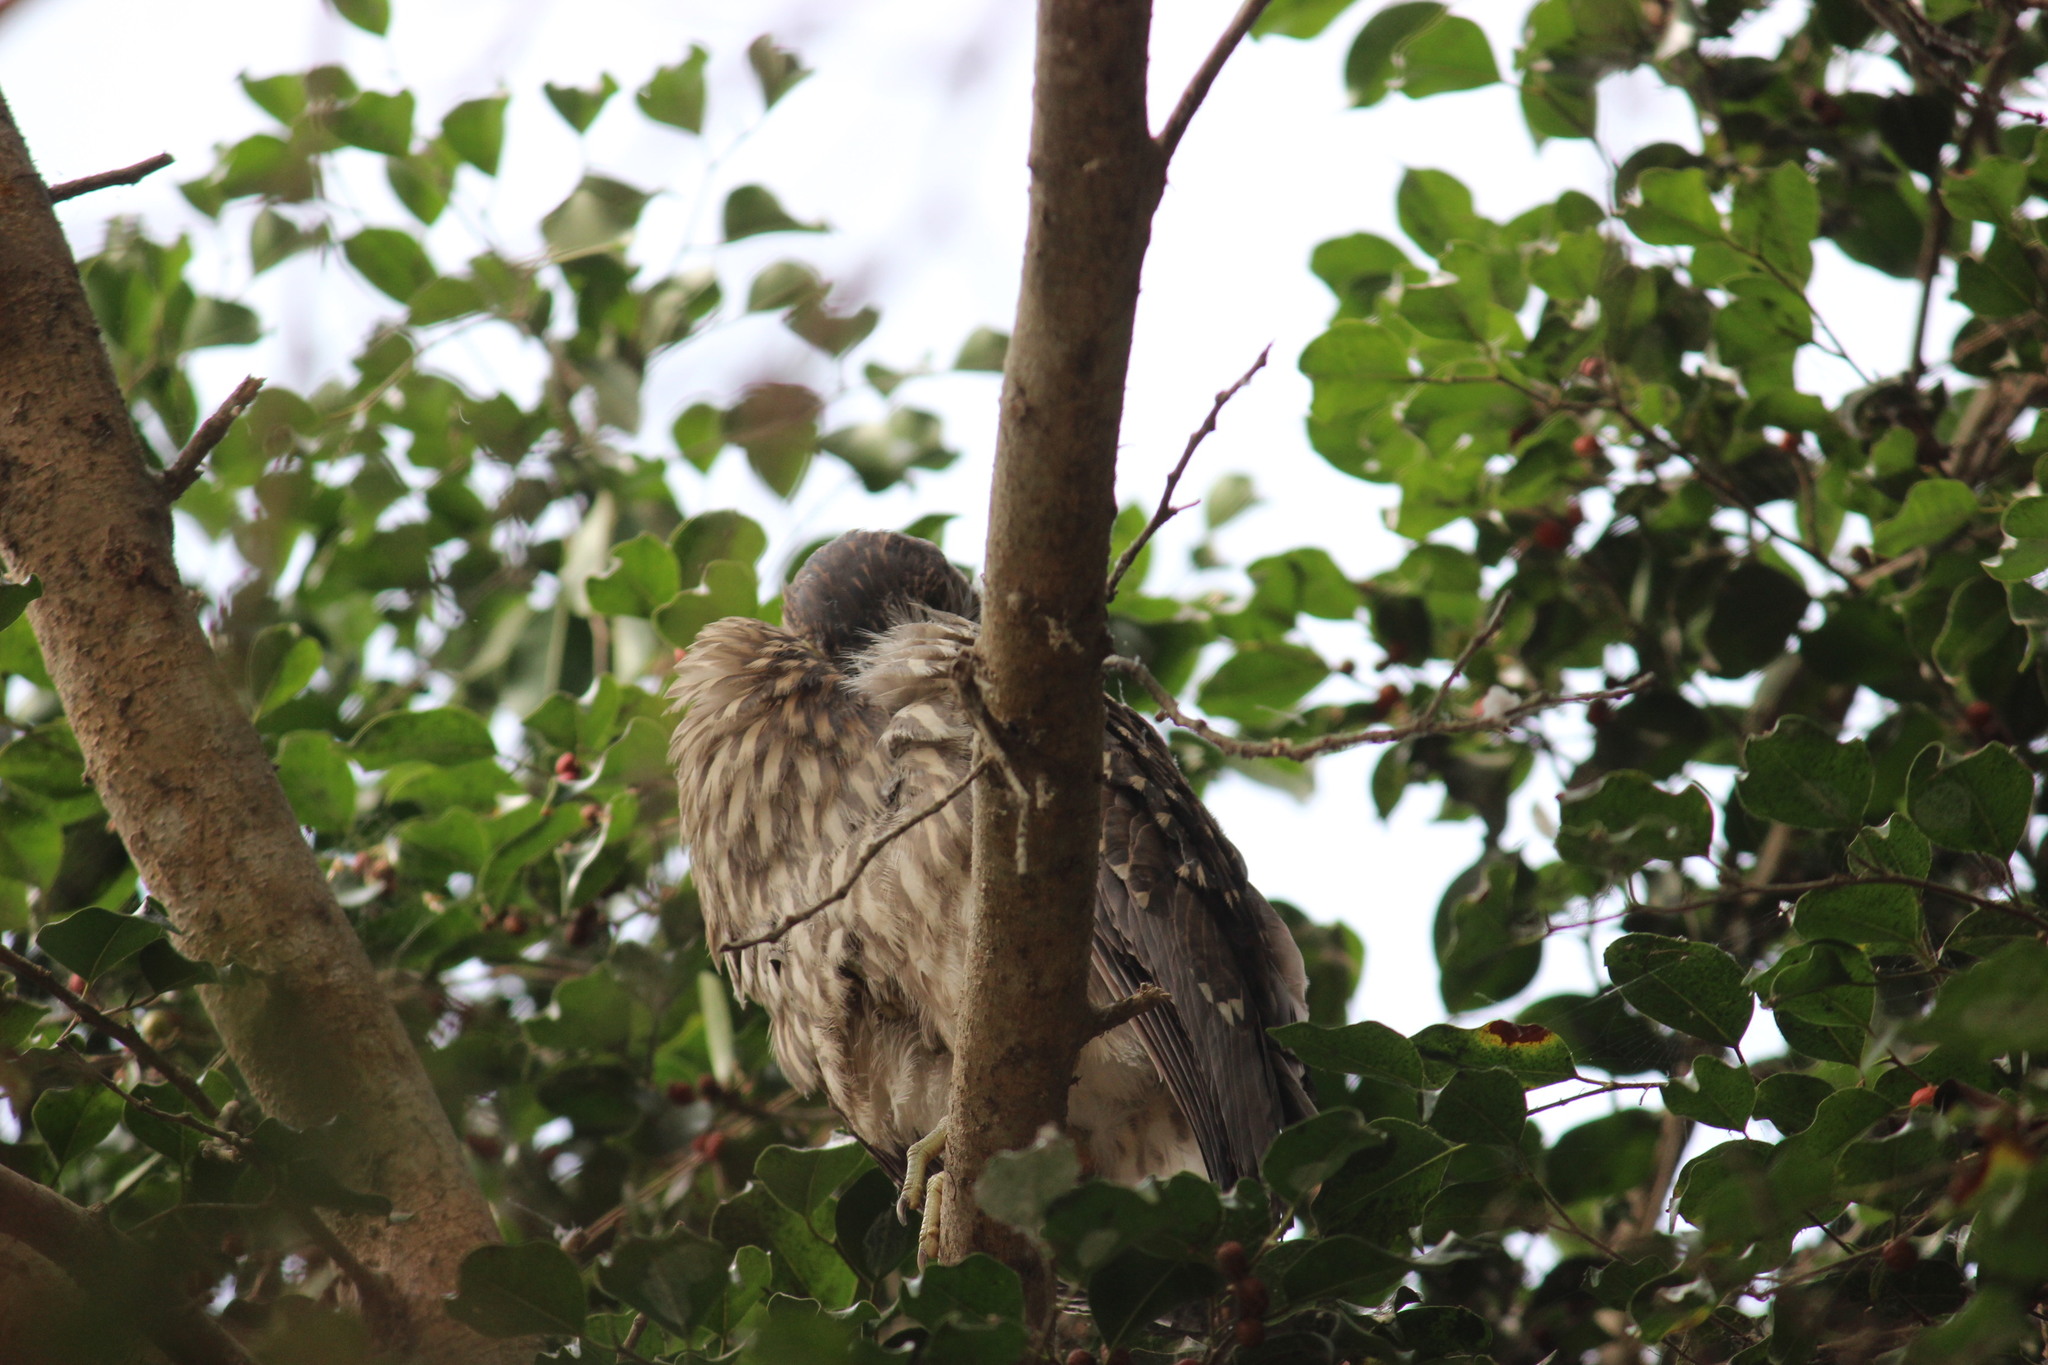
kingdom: Animalia
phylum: Chordata
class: Aves
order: Pelecaniformes
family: Ardeidae
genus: Nycticorax
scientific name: Nycticorax nycticorax
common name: Black-crowned night heron
